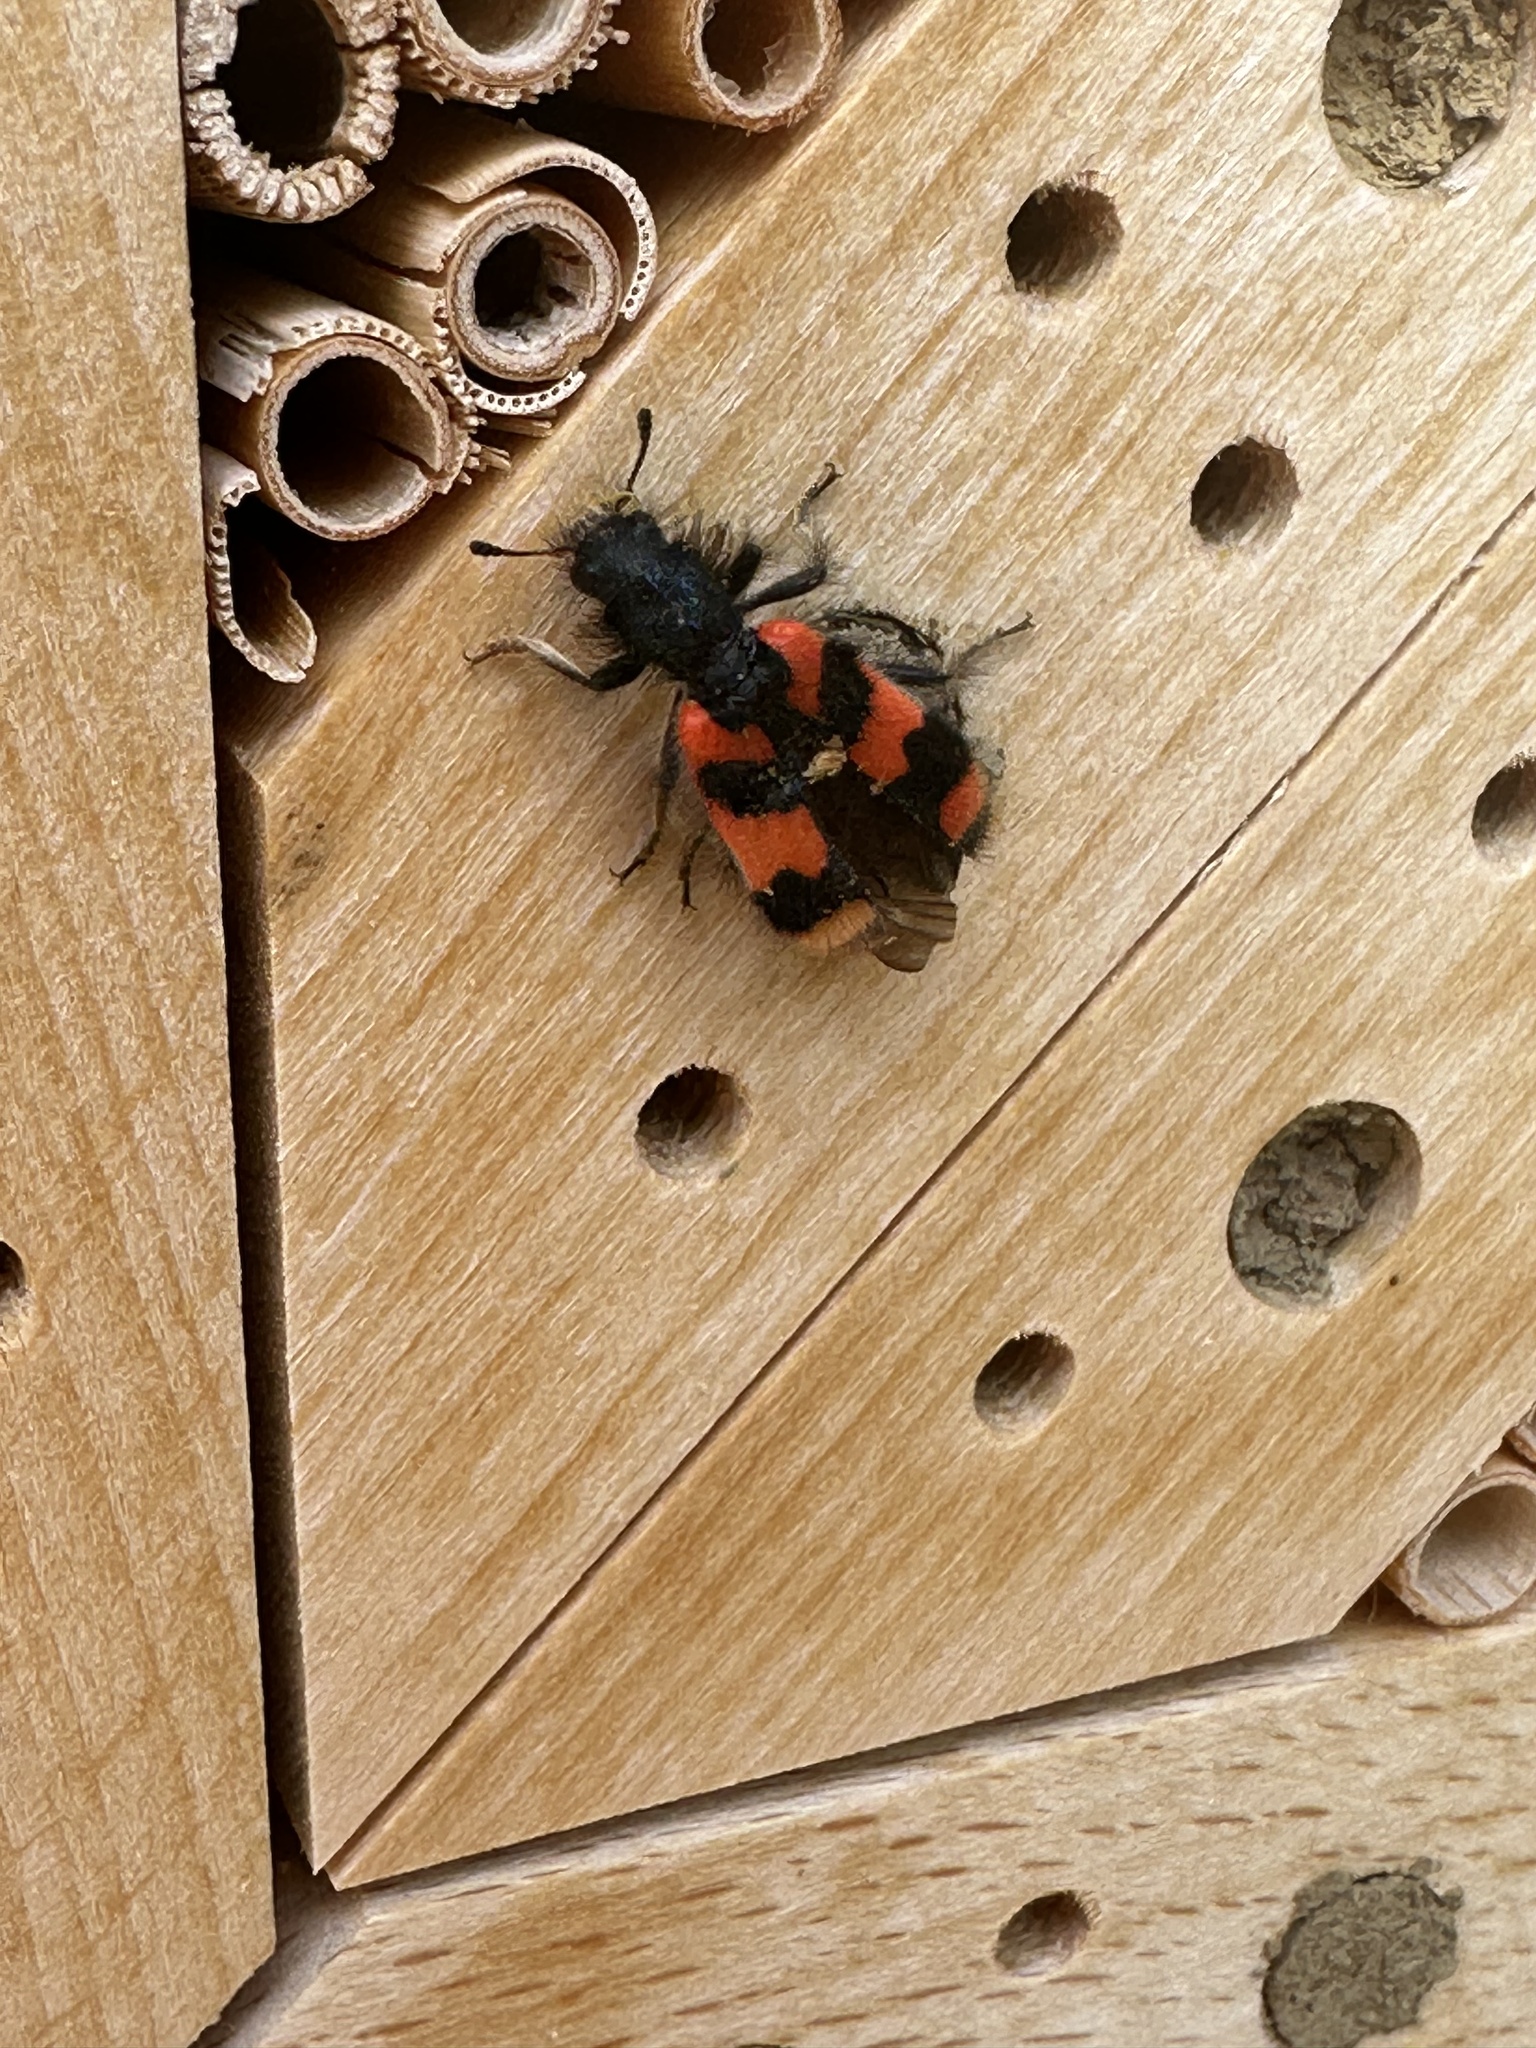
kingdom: Animalia
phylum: Arthropoda
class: Insecta
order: Coleoptera
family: Cleridae
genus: Trichodes
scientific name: Trichodes alvearius
